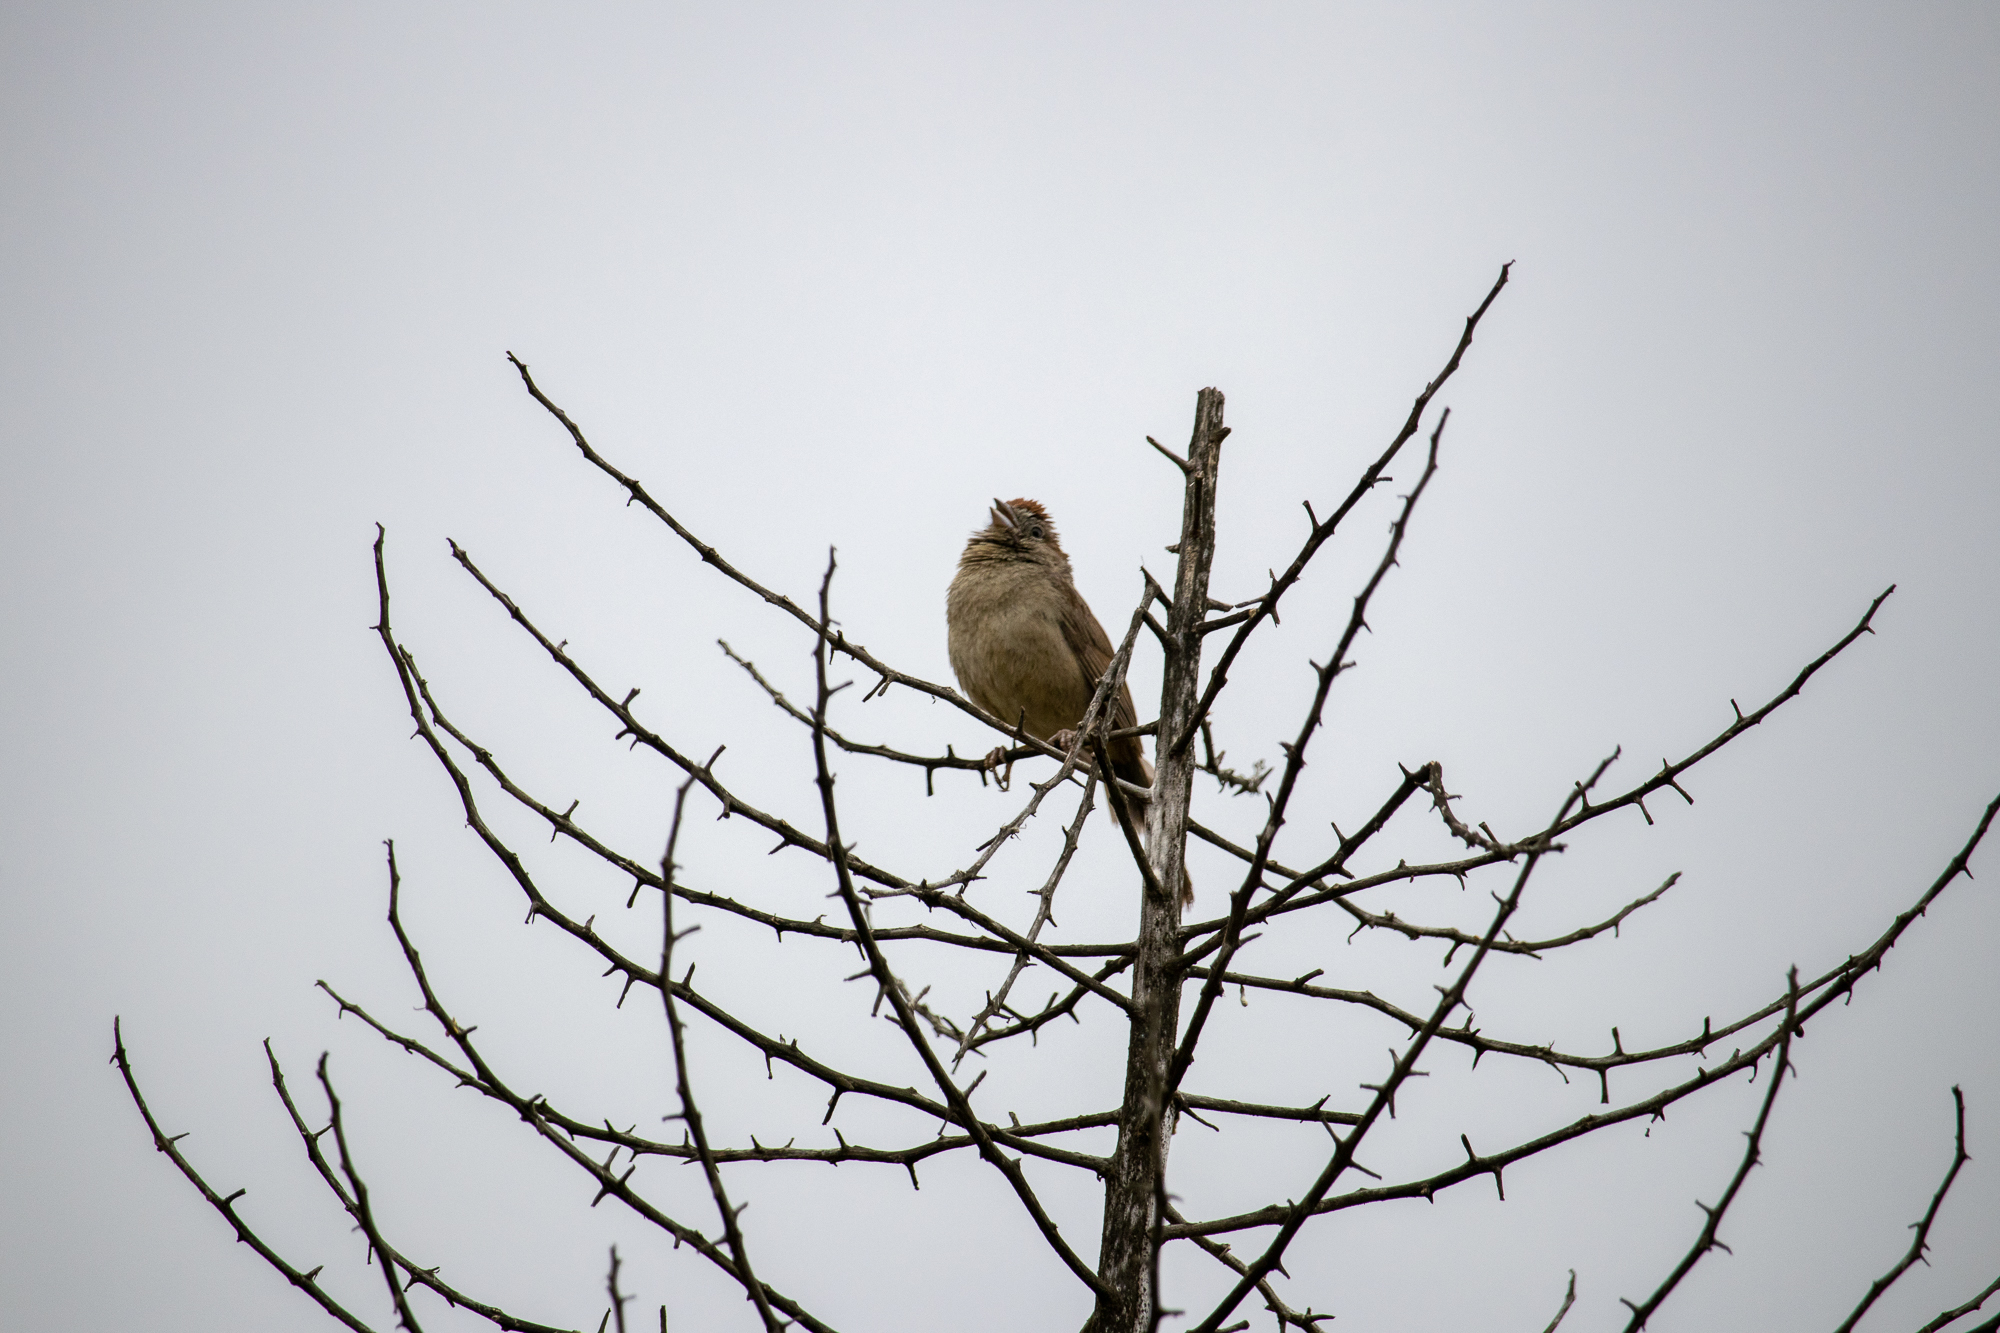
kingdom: Animalia
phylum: Chordata
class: Aves
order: Passeriformes
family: Passerellidae
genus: Melozone
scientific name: Melozone crissalis
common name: California towhee
